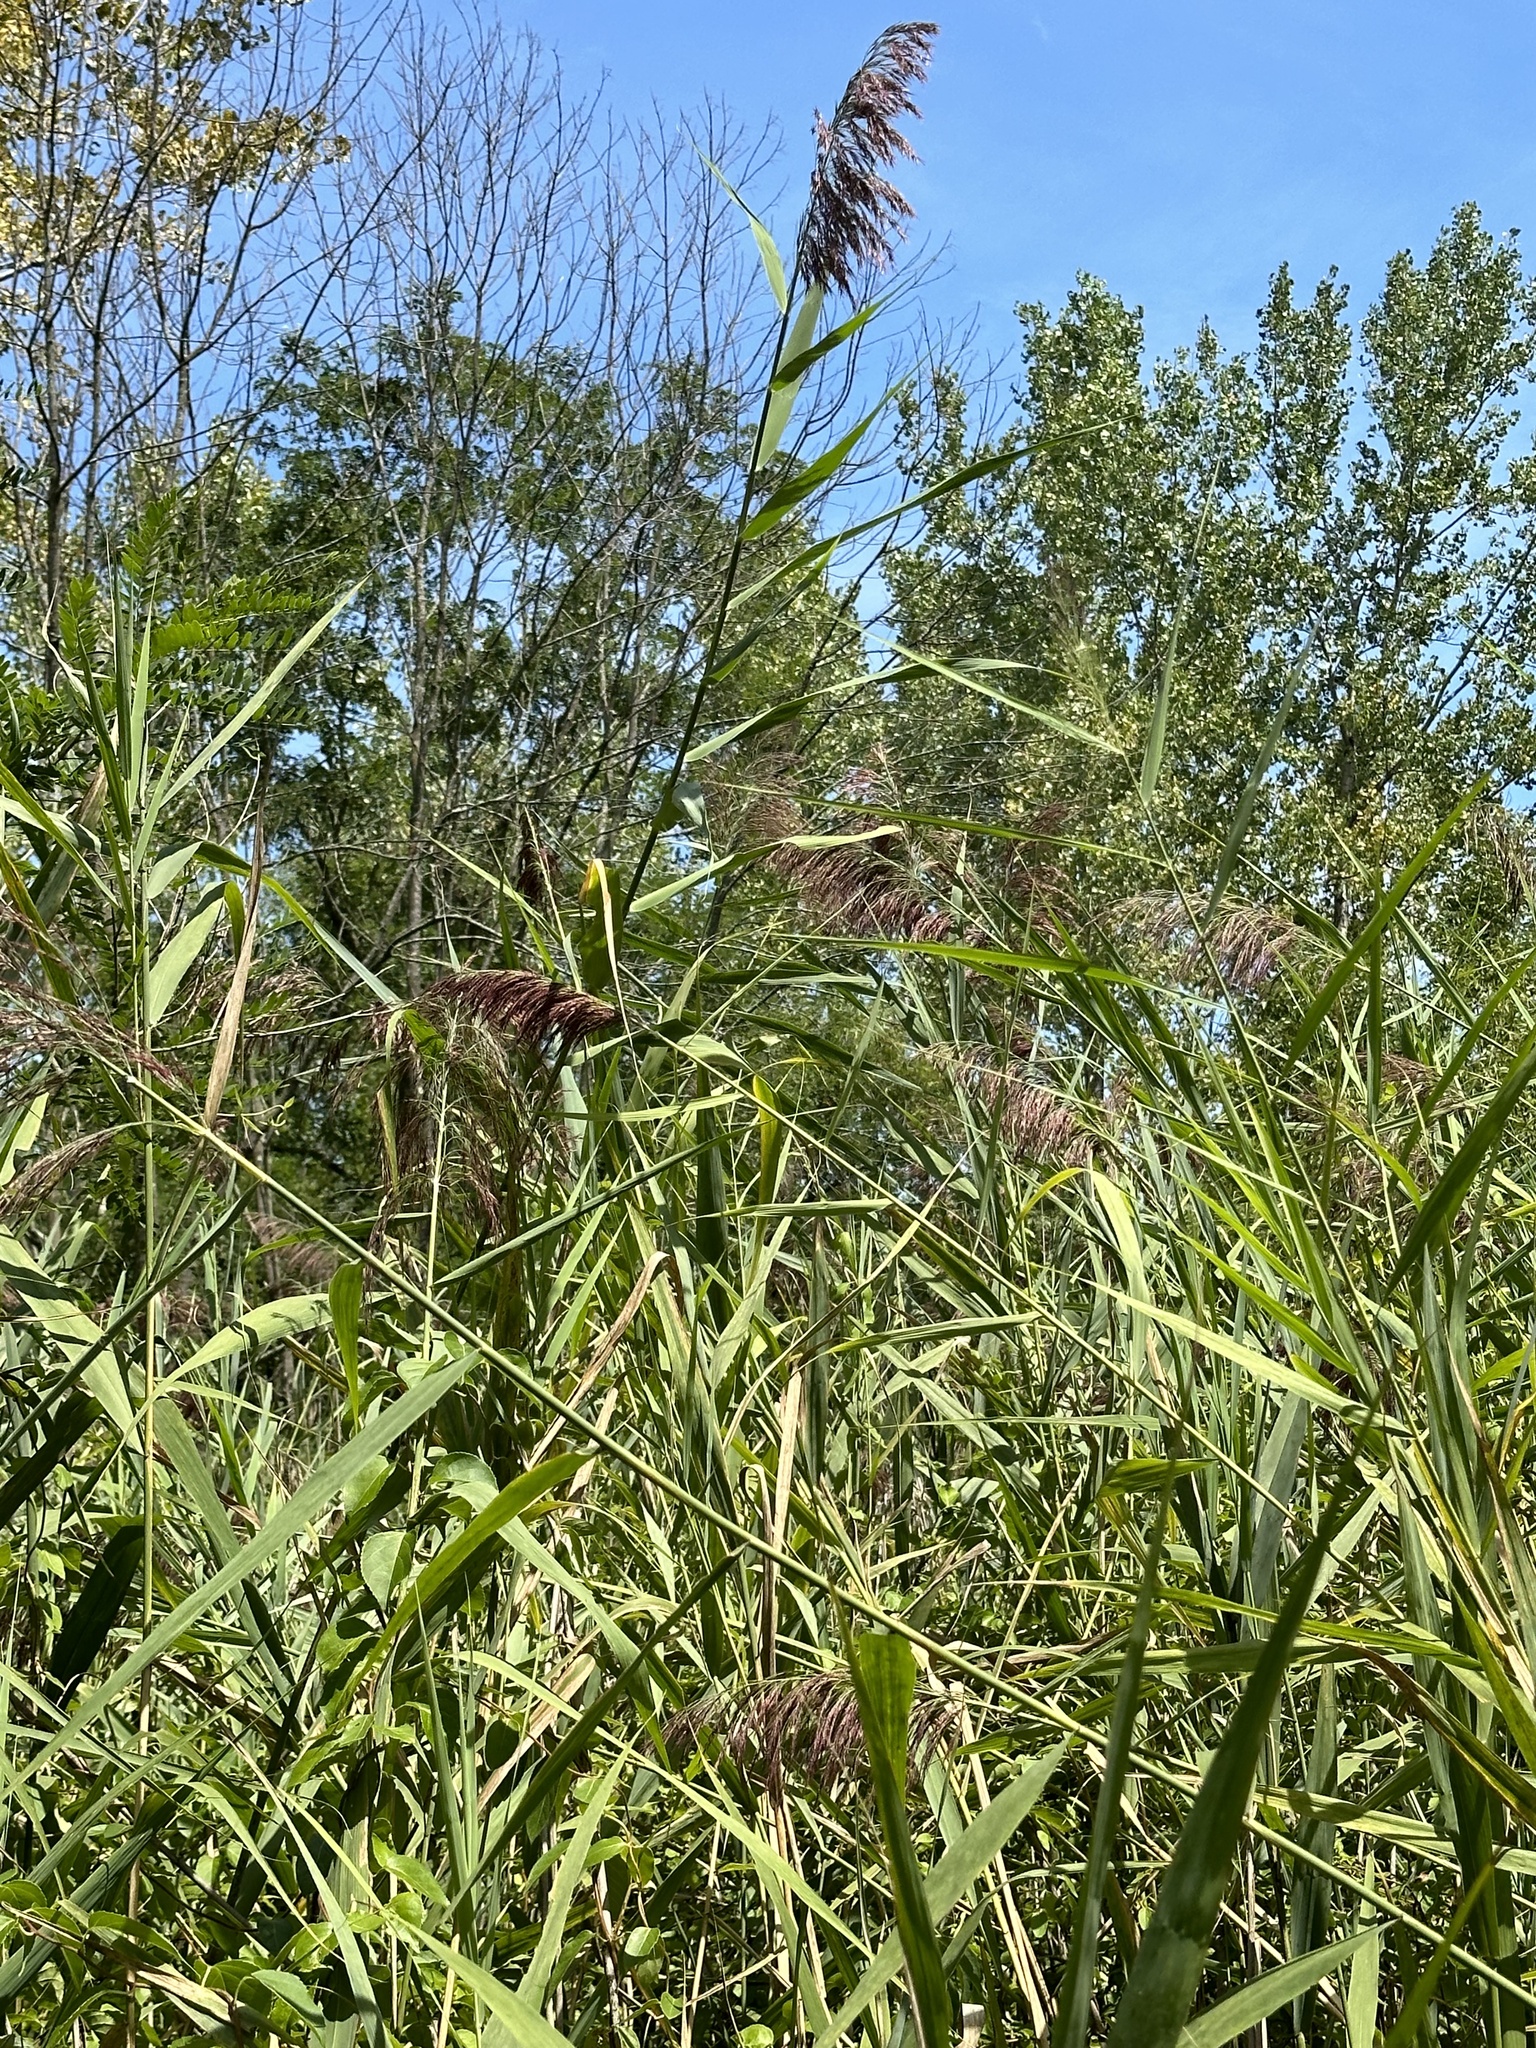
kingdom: Plantae
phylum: Tracheophyta
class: Liliopsida
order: Poales
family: Poaceae
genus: Phragmites
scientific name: Phragmites australis
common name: Common reed
